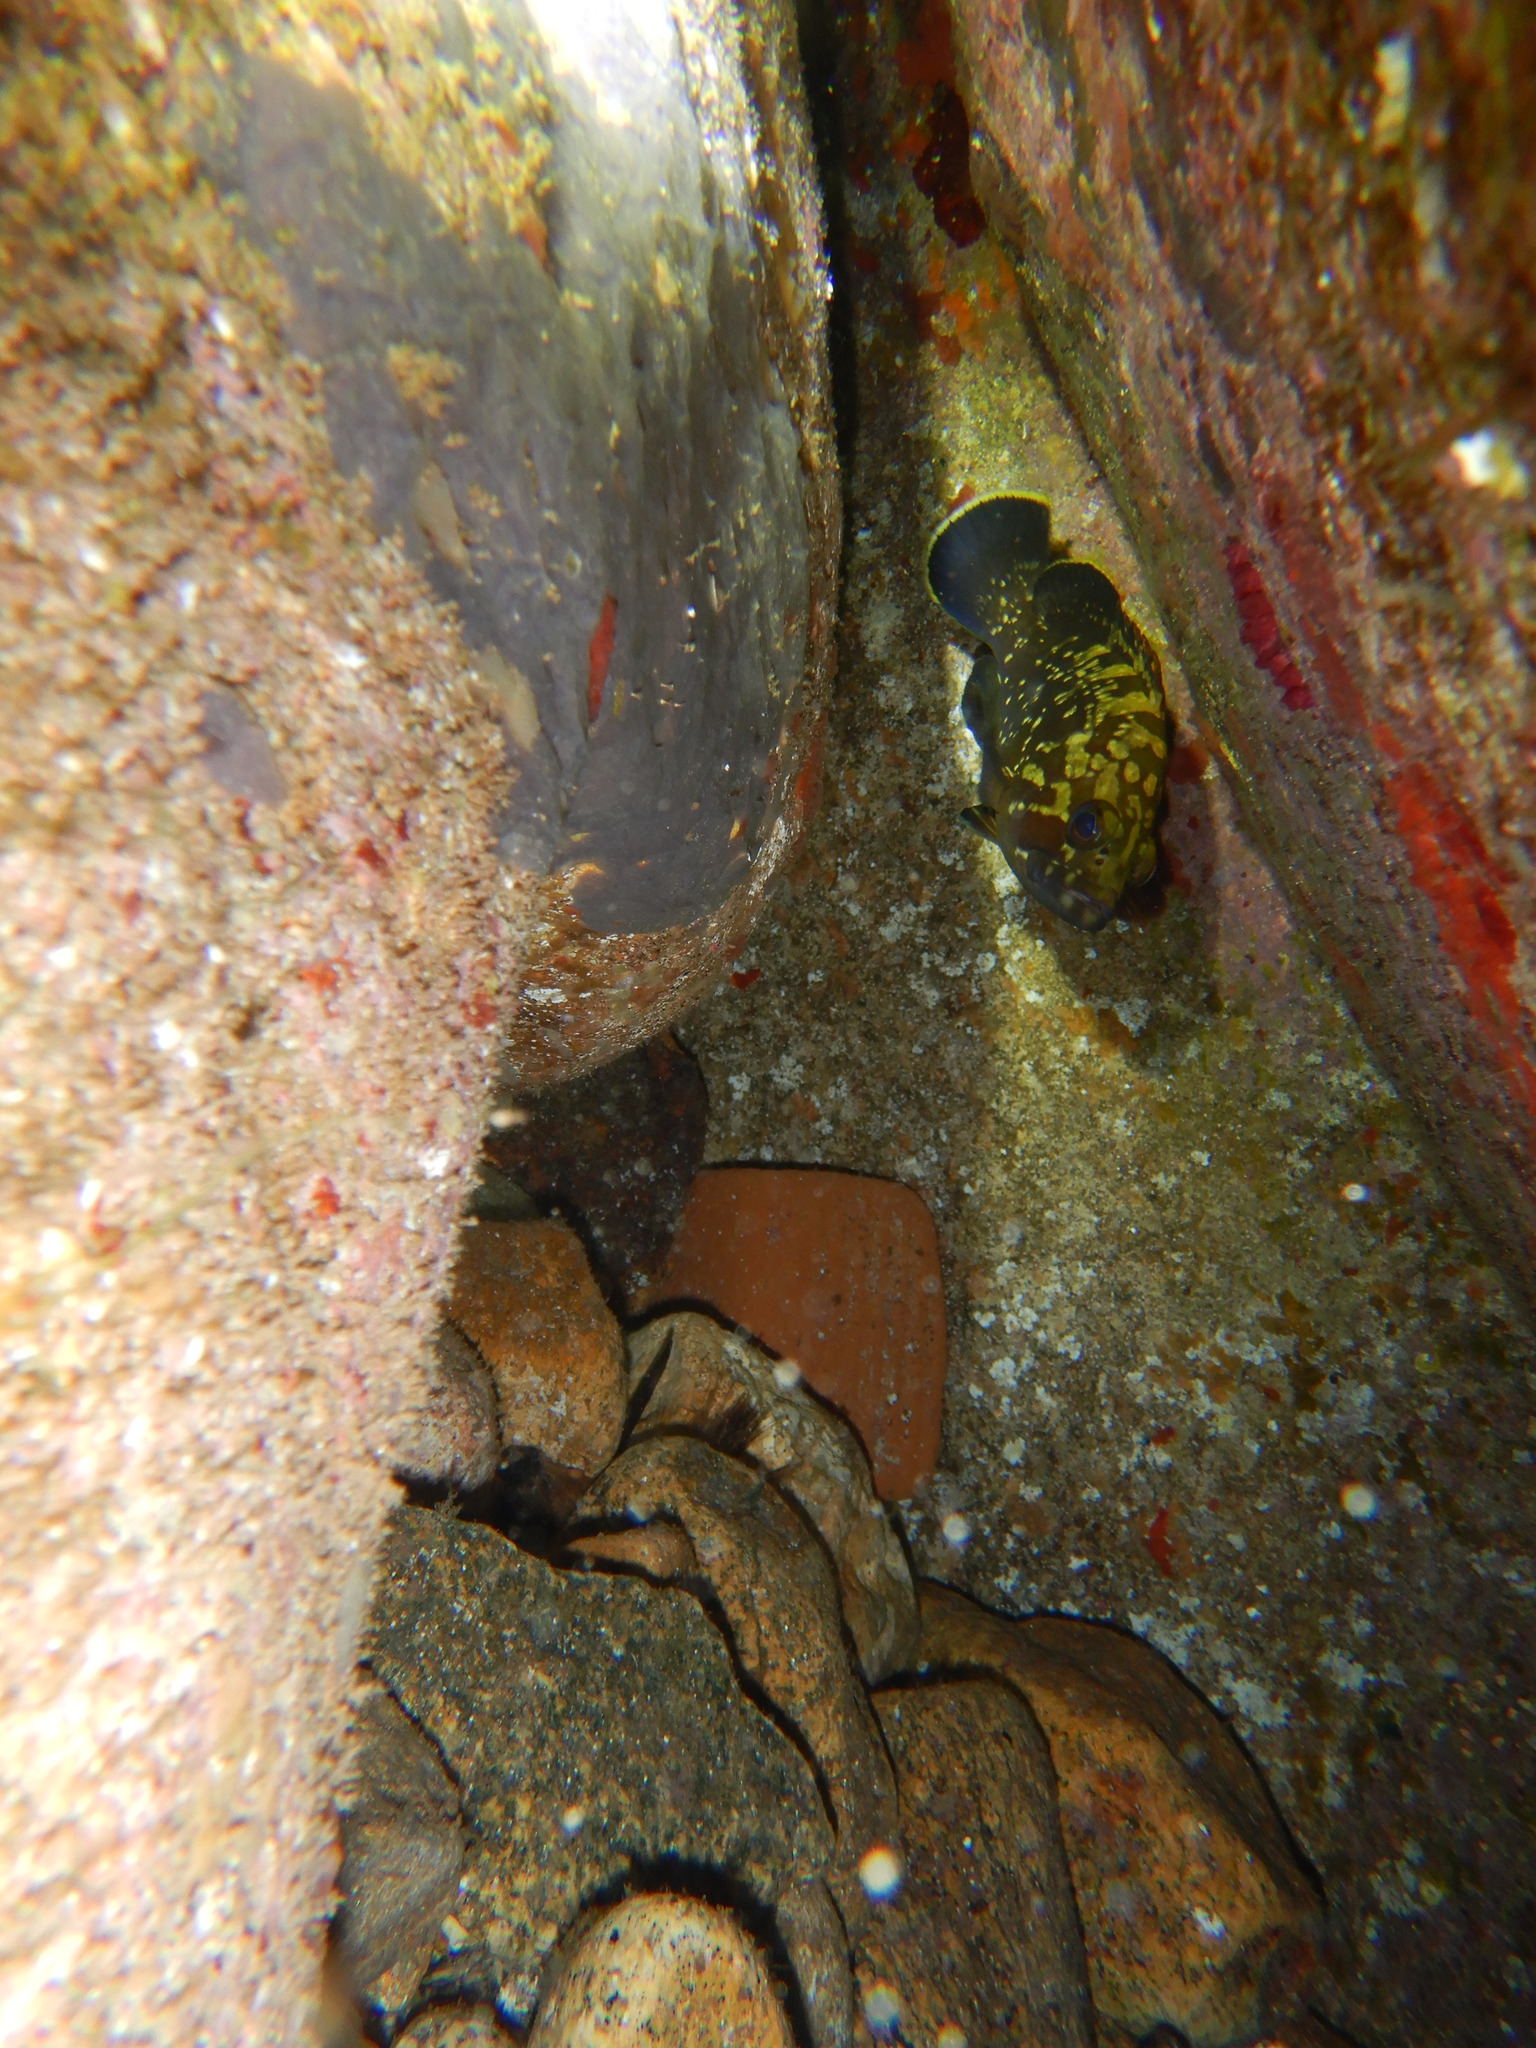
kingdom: Animalia
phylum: Chordata
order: Perciformes
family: Serranidae
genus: Epinephelus
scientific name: Epinephelus marginatus
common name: Dusky grouper
